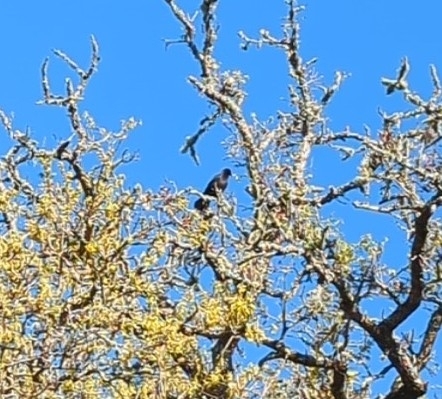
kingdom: Animalia
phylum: Chordata
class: Aves
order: Passeriformes
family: Corvidae
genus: Corvus
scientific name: Corvus brachyrhynchos
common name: American crow
